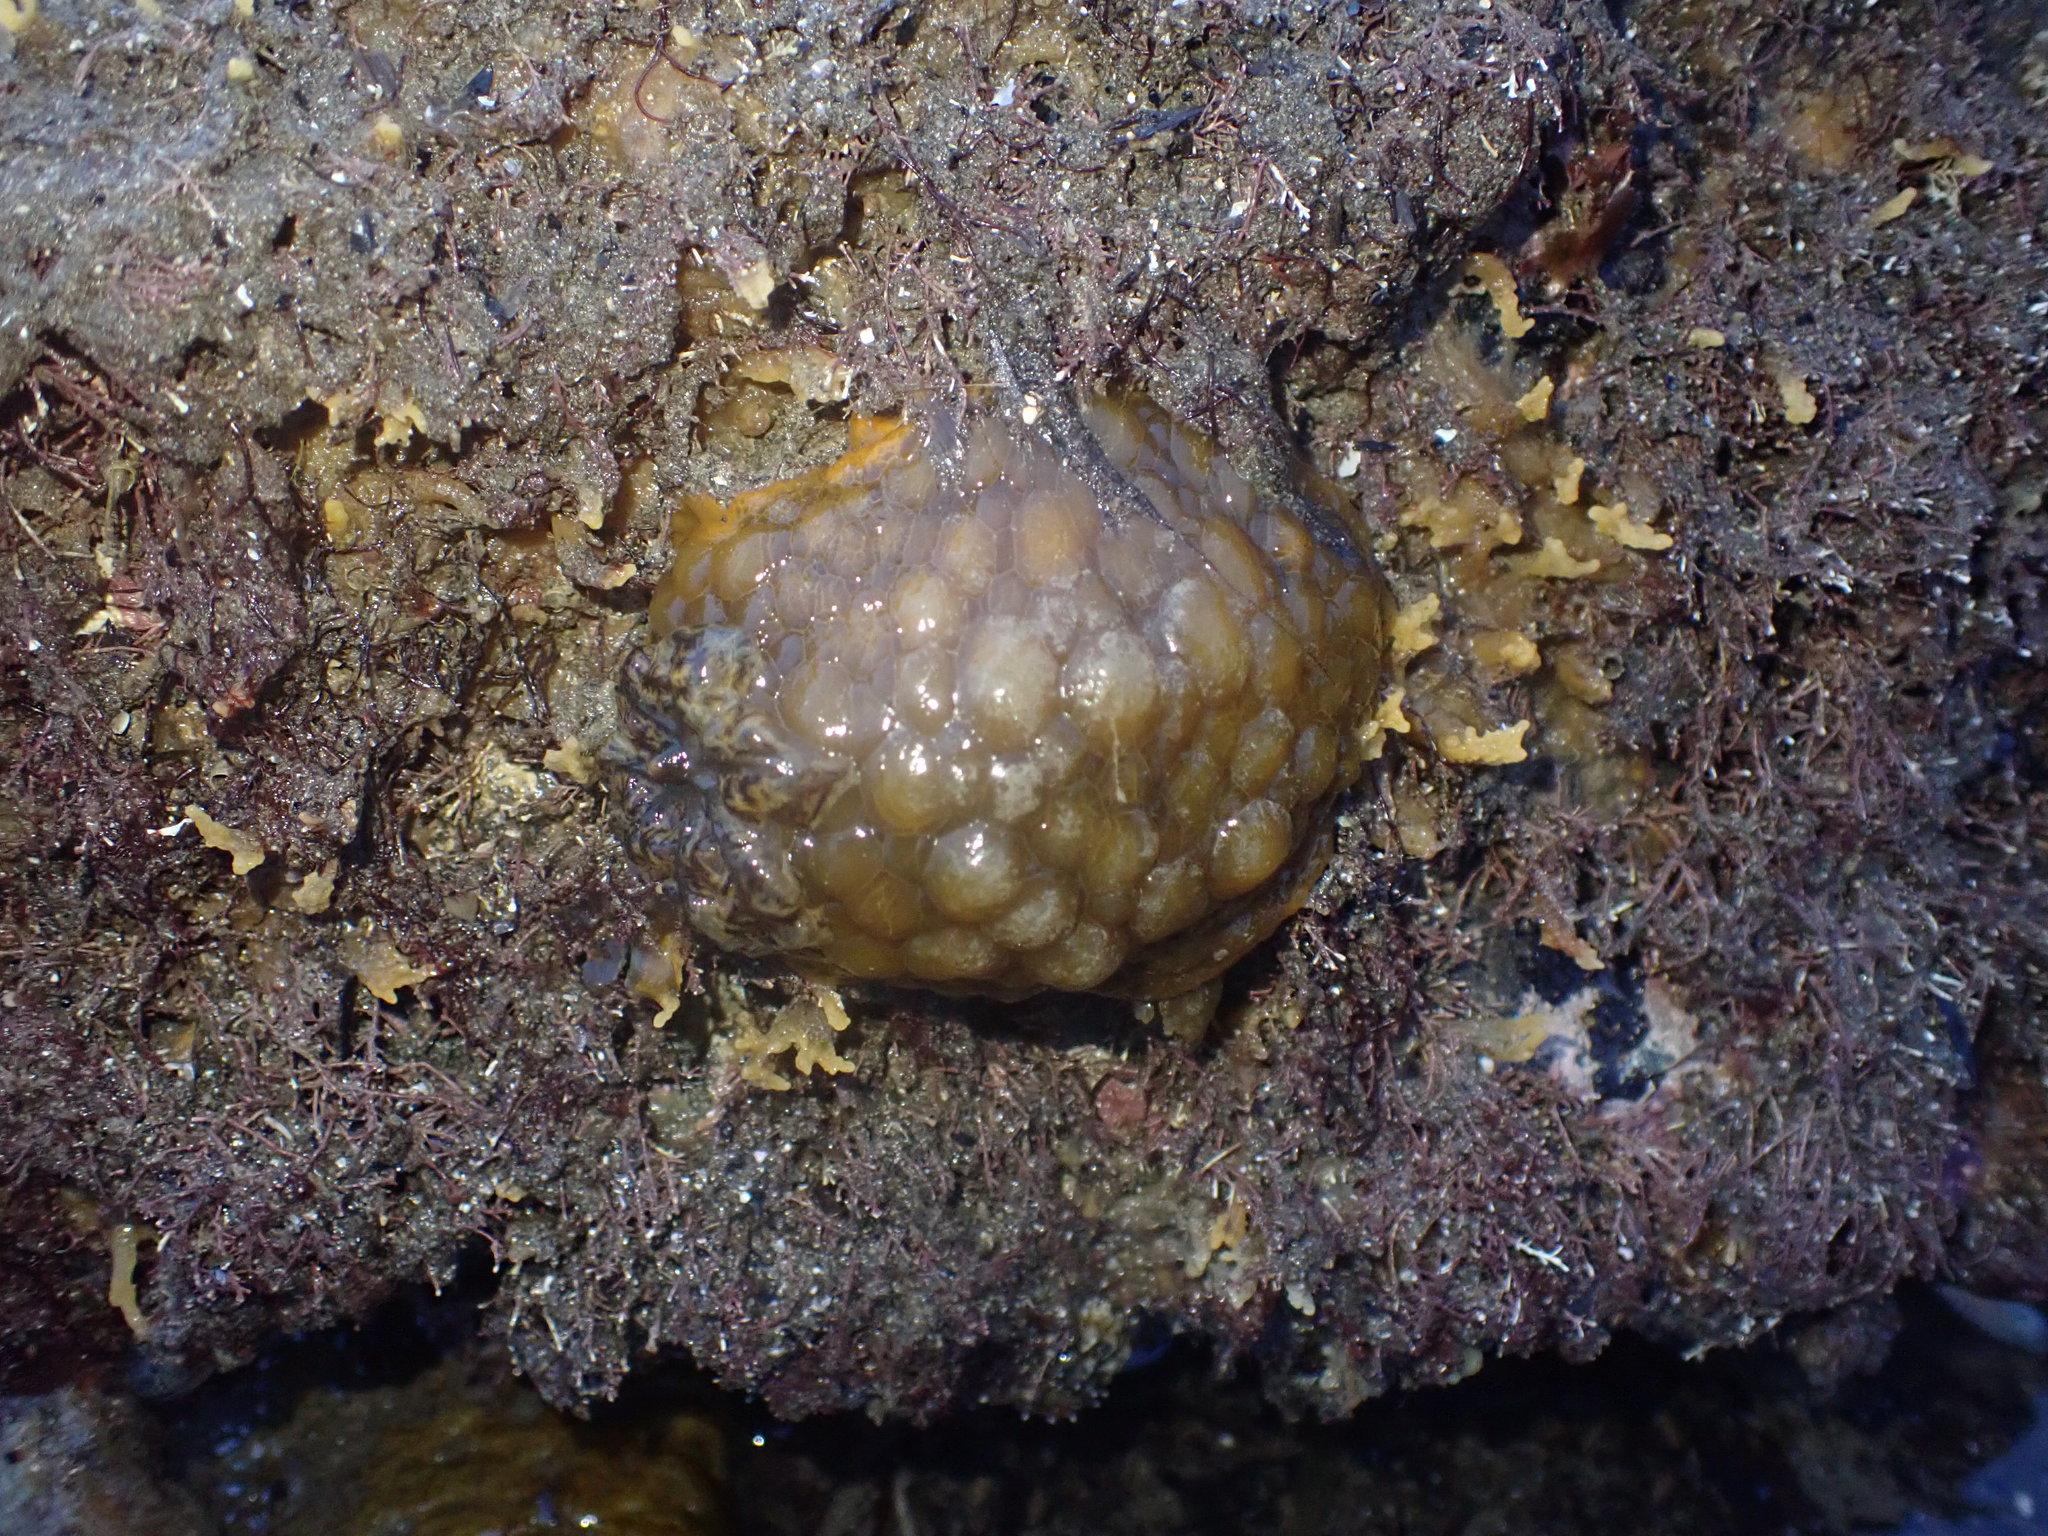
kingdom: Animalia
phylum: Mollusca
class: Gastropoda
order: Nudibranchia
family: Dorididae
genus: Doris
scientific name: Doris wellingtonensis
